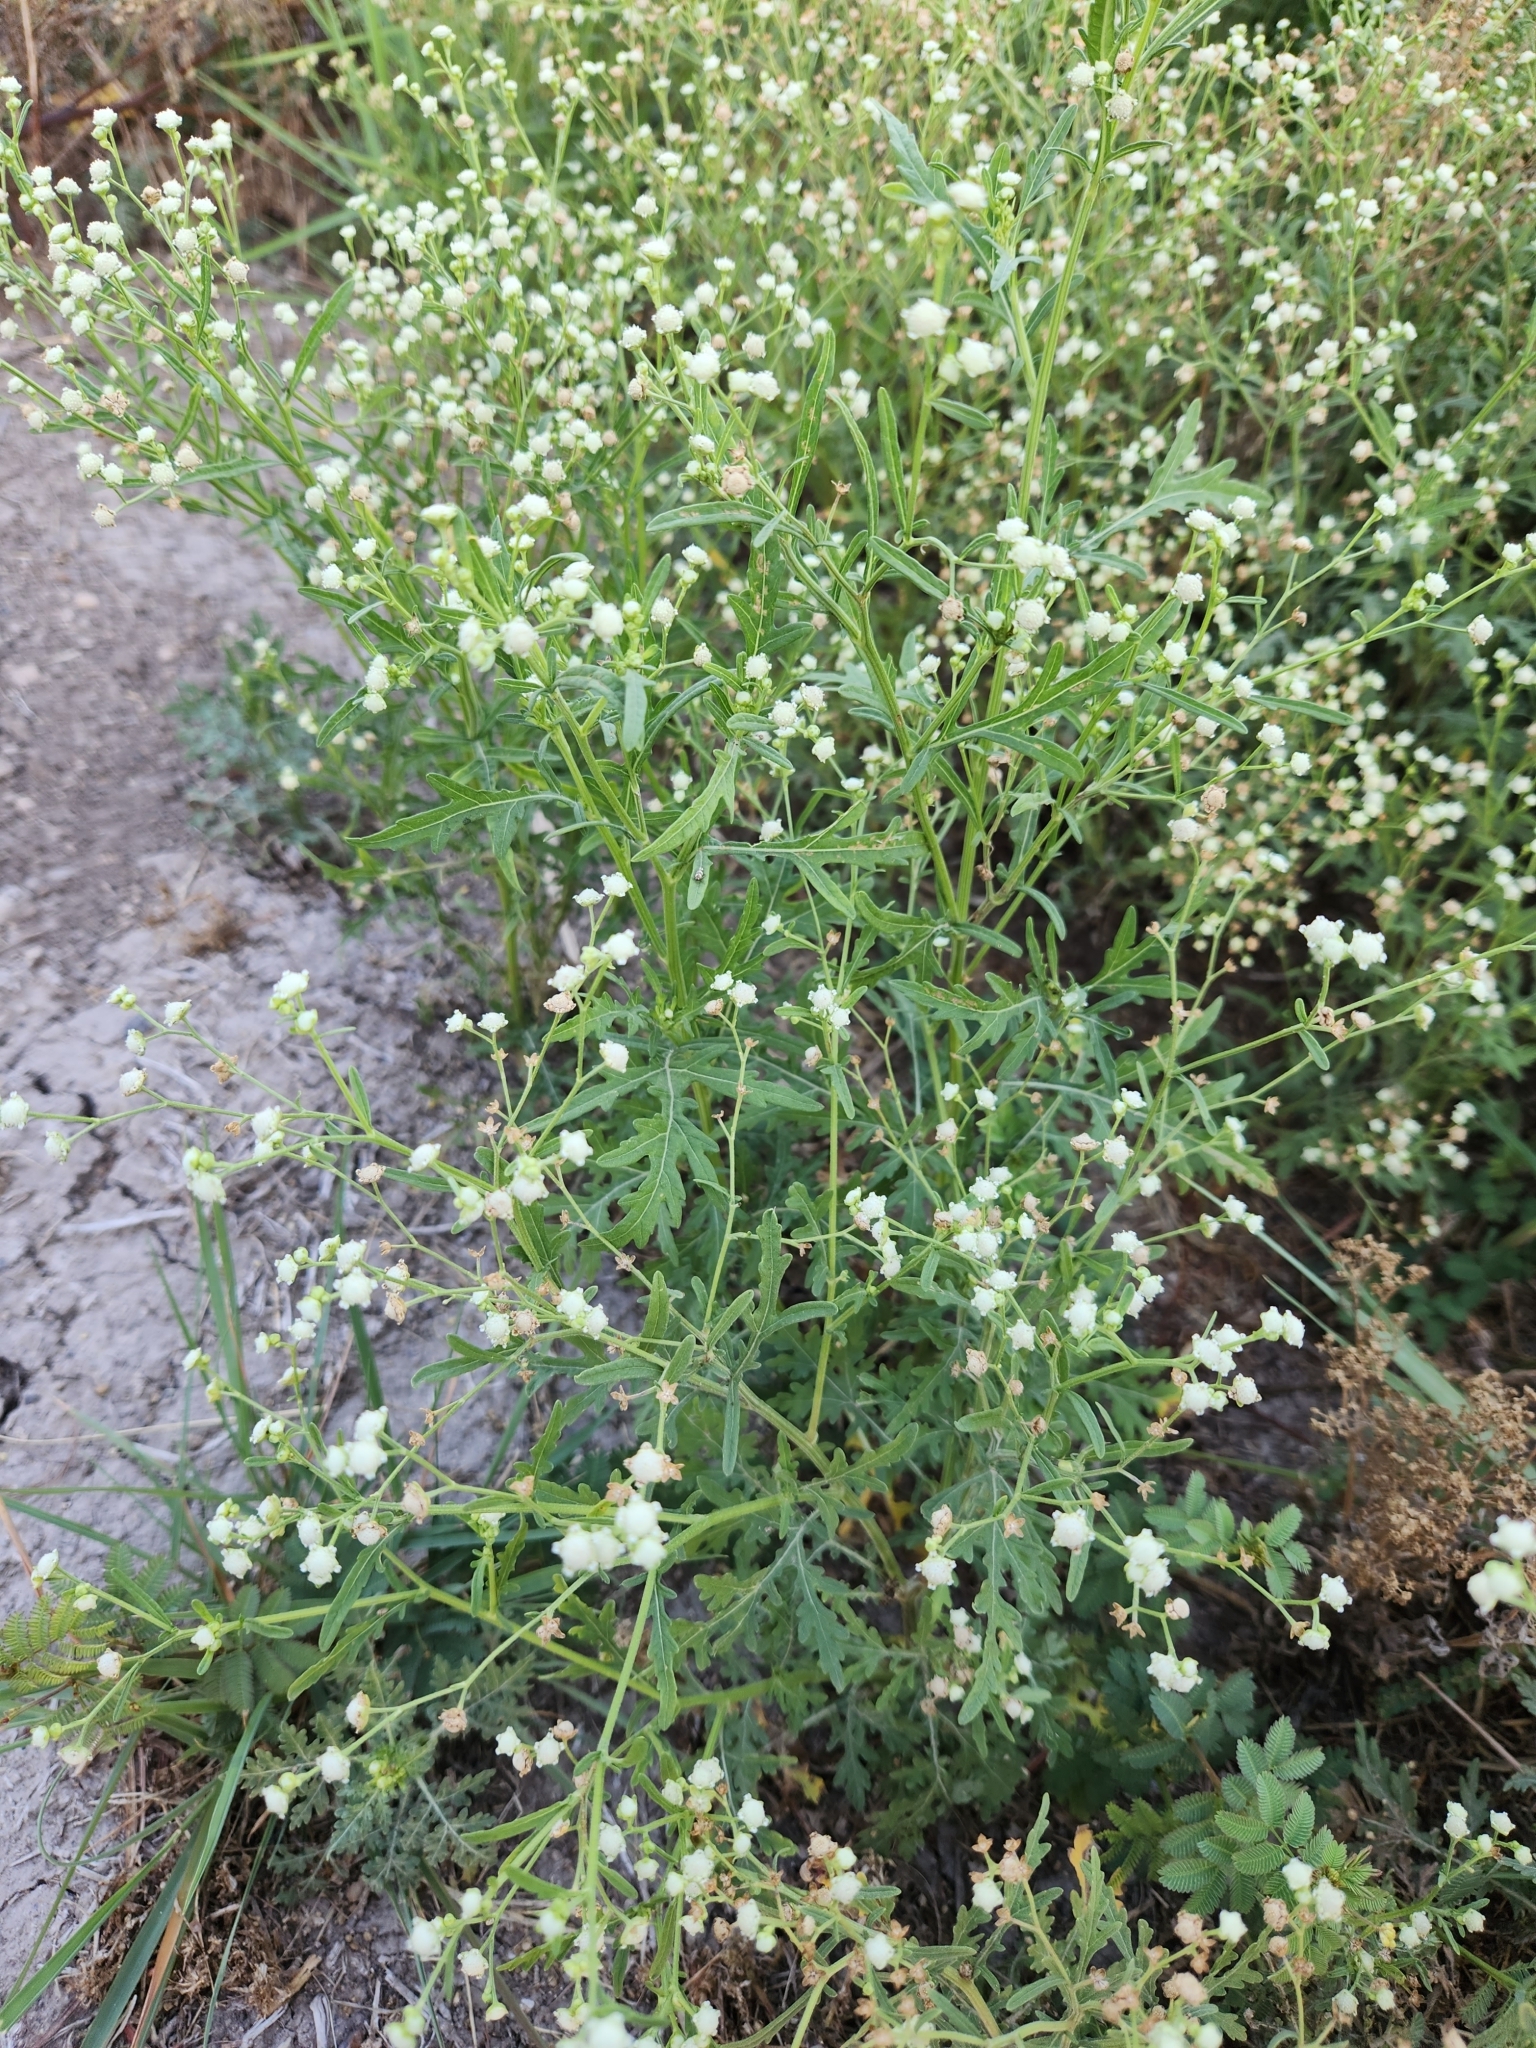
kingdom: Plantae
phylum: Tracheophyta
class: Magnoliopsida
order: Asterales
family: Asteraceae
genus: Parthenium
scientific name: Parthenium hysterophorus
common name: Santa maria feverfew
